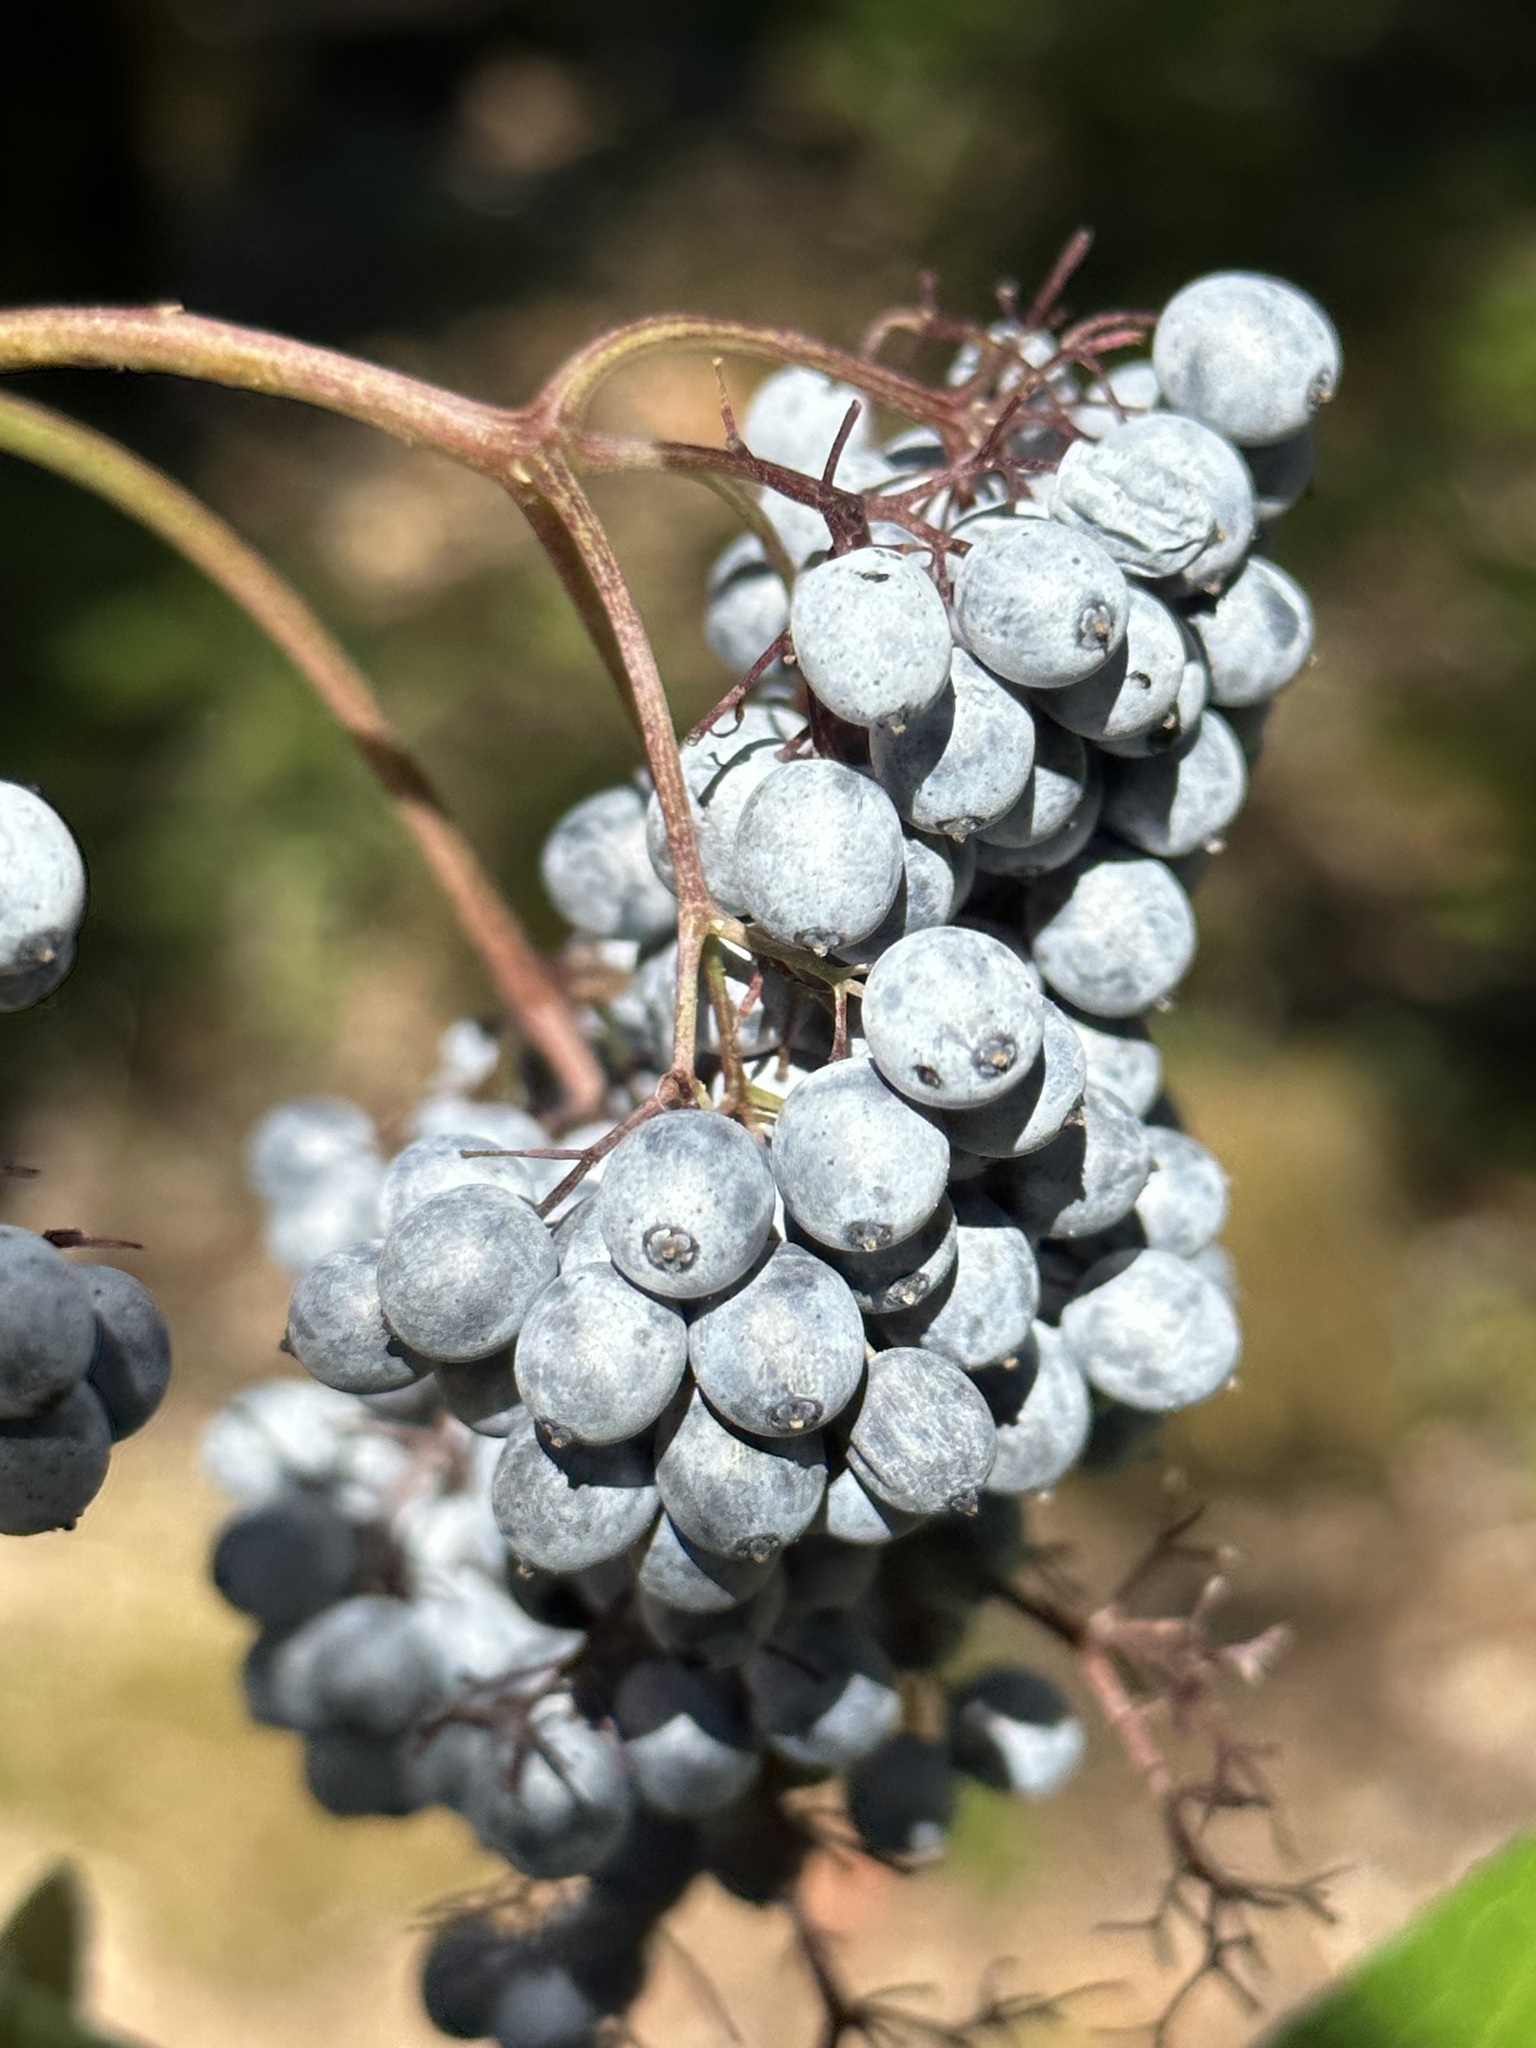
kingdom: Plantae
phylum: Tracheophyta
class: Magnoliopsida
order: Dipsacales
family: Viburnaceae
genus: Sambucus
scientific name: Sambucus cerulea
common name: Blue elder
